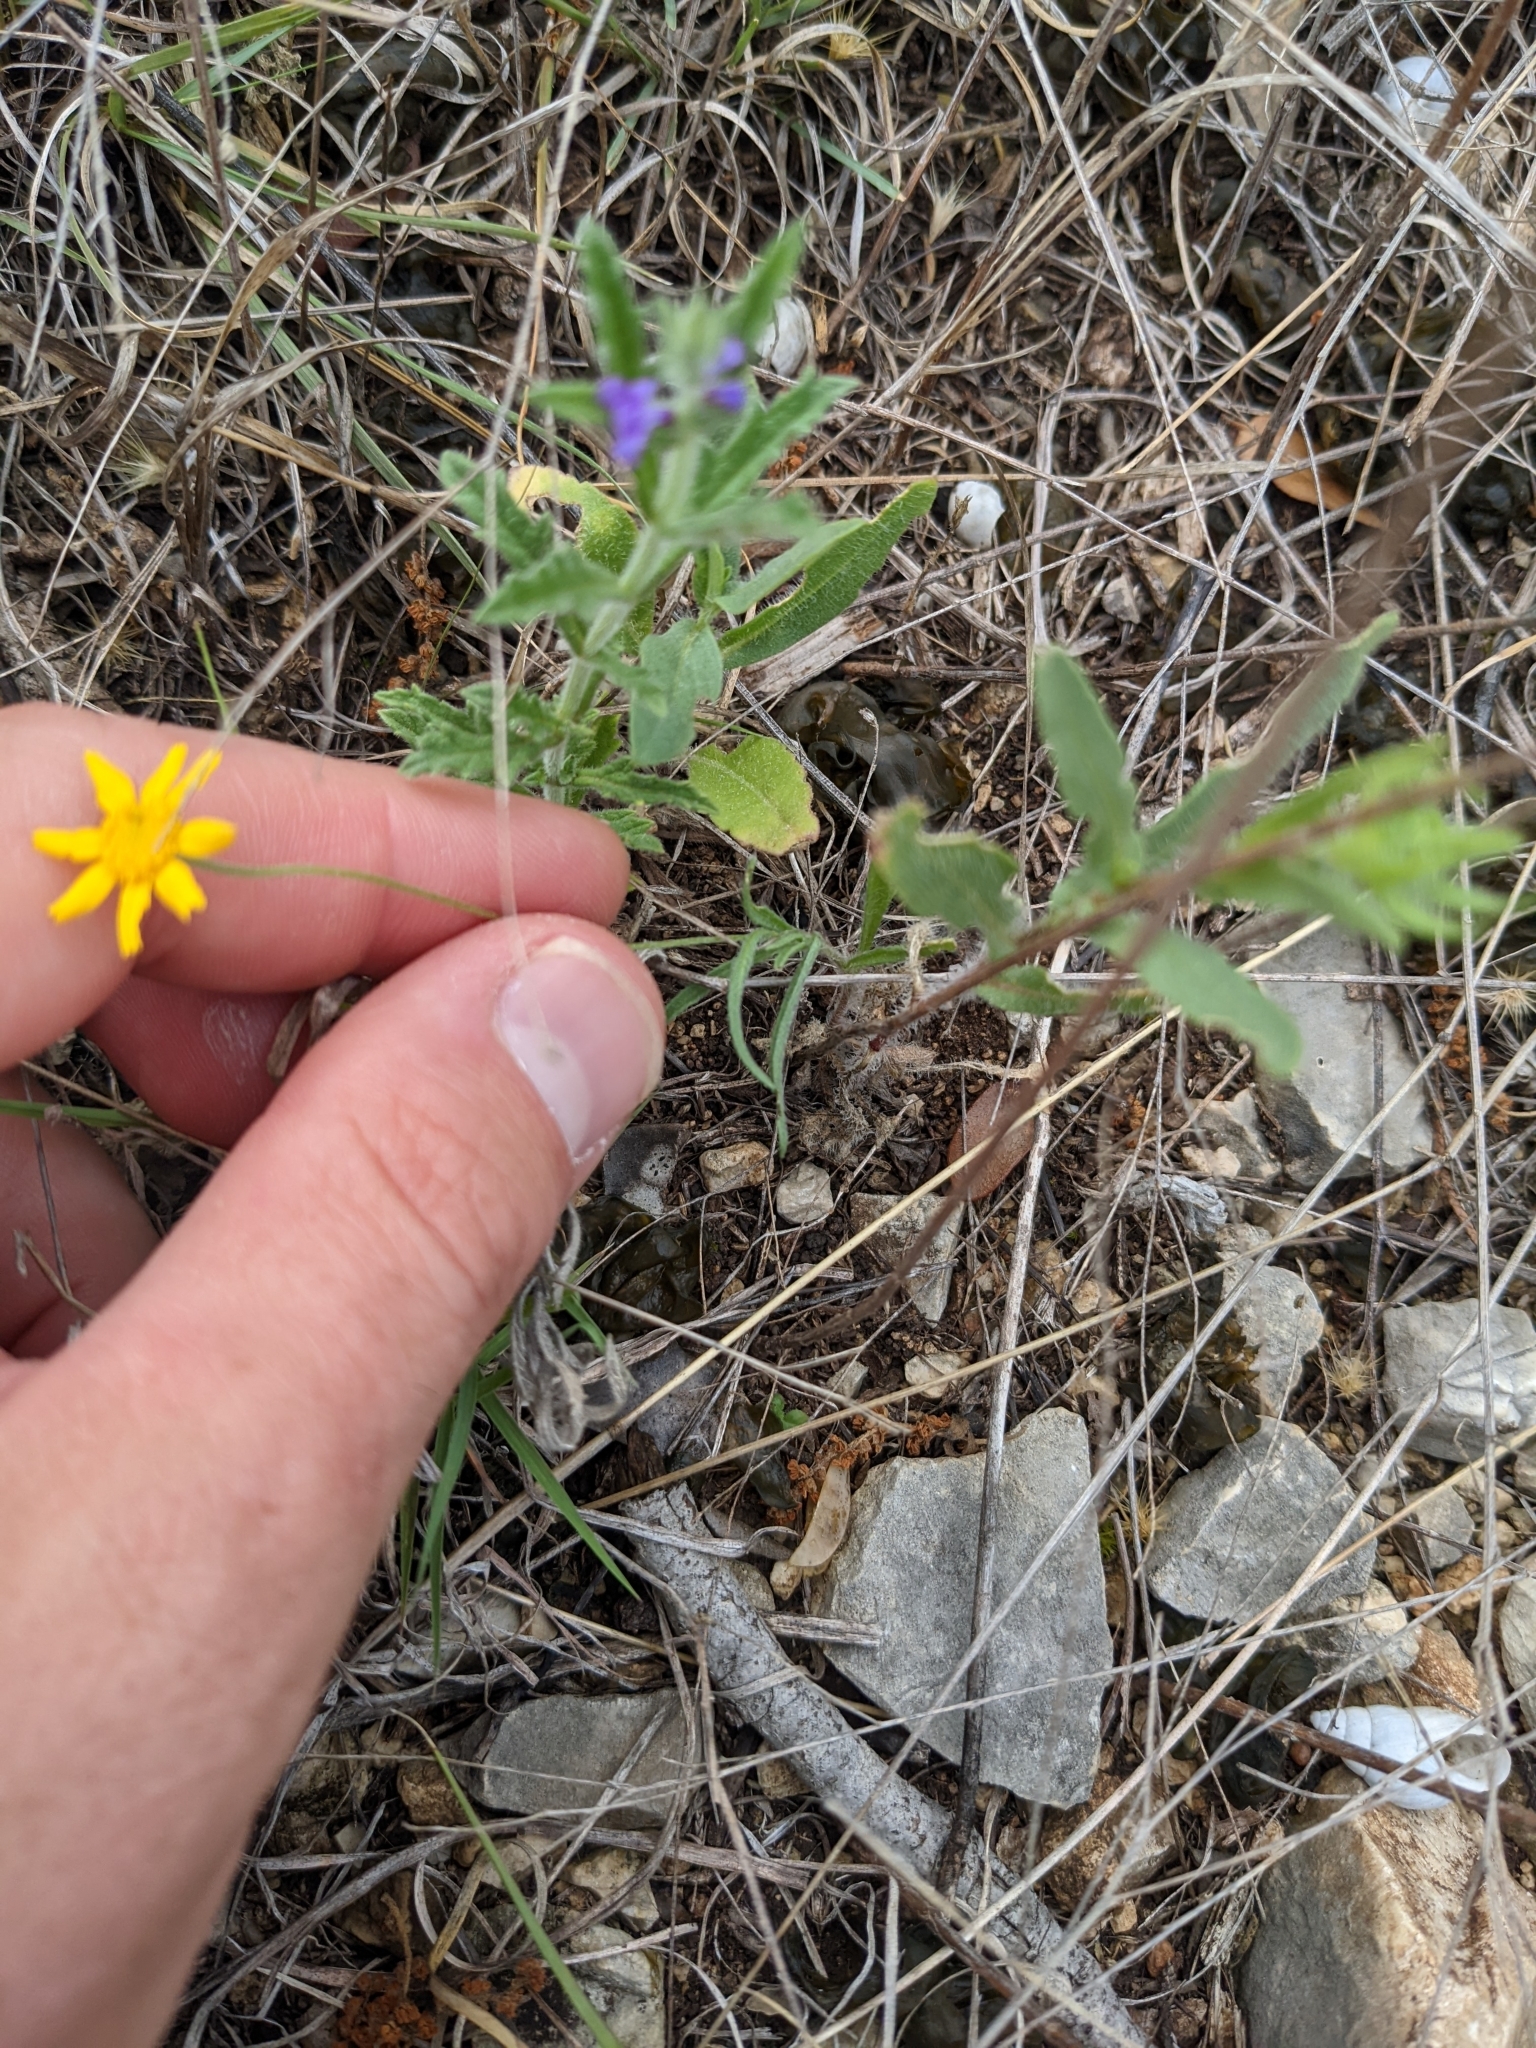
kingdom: Plantae
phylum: Tracheophyta
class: Magnoliopsida
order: Asterales
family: Asteraceae
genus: Tetraneuris
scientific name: Tetraneuris linearifolia
